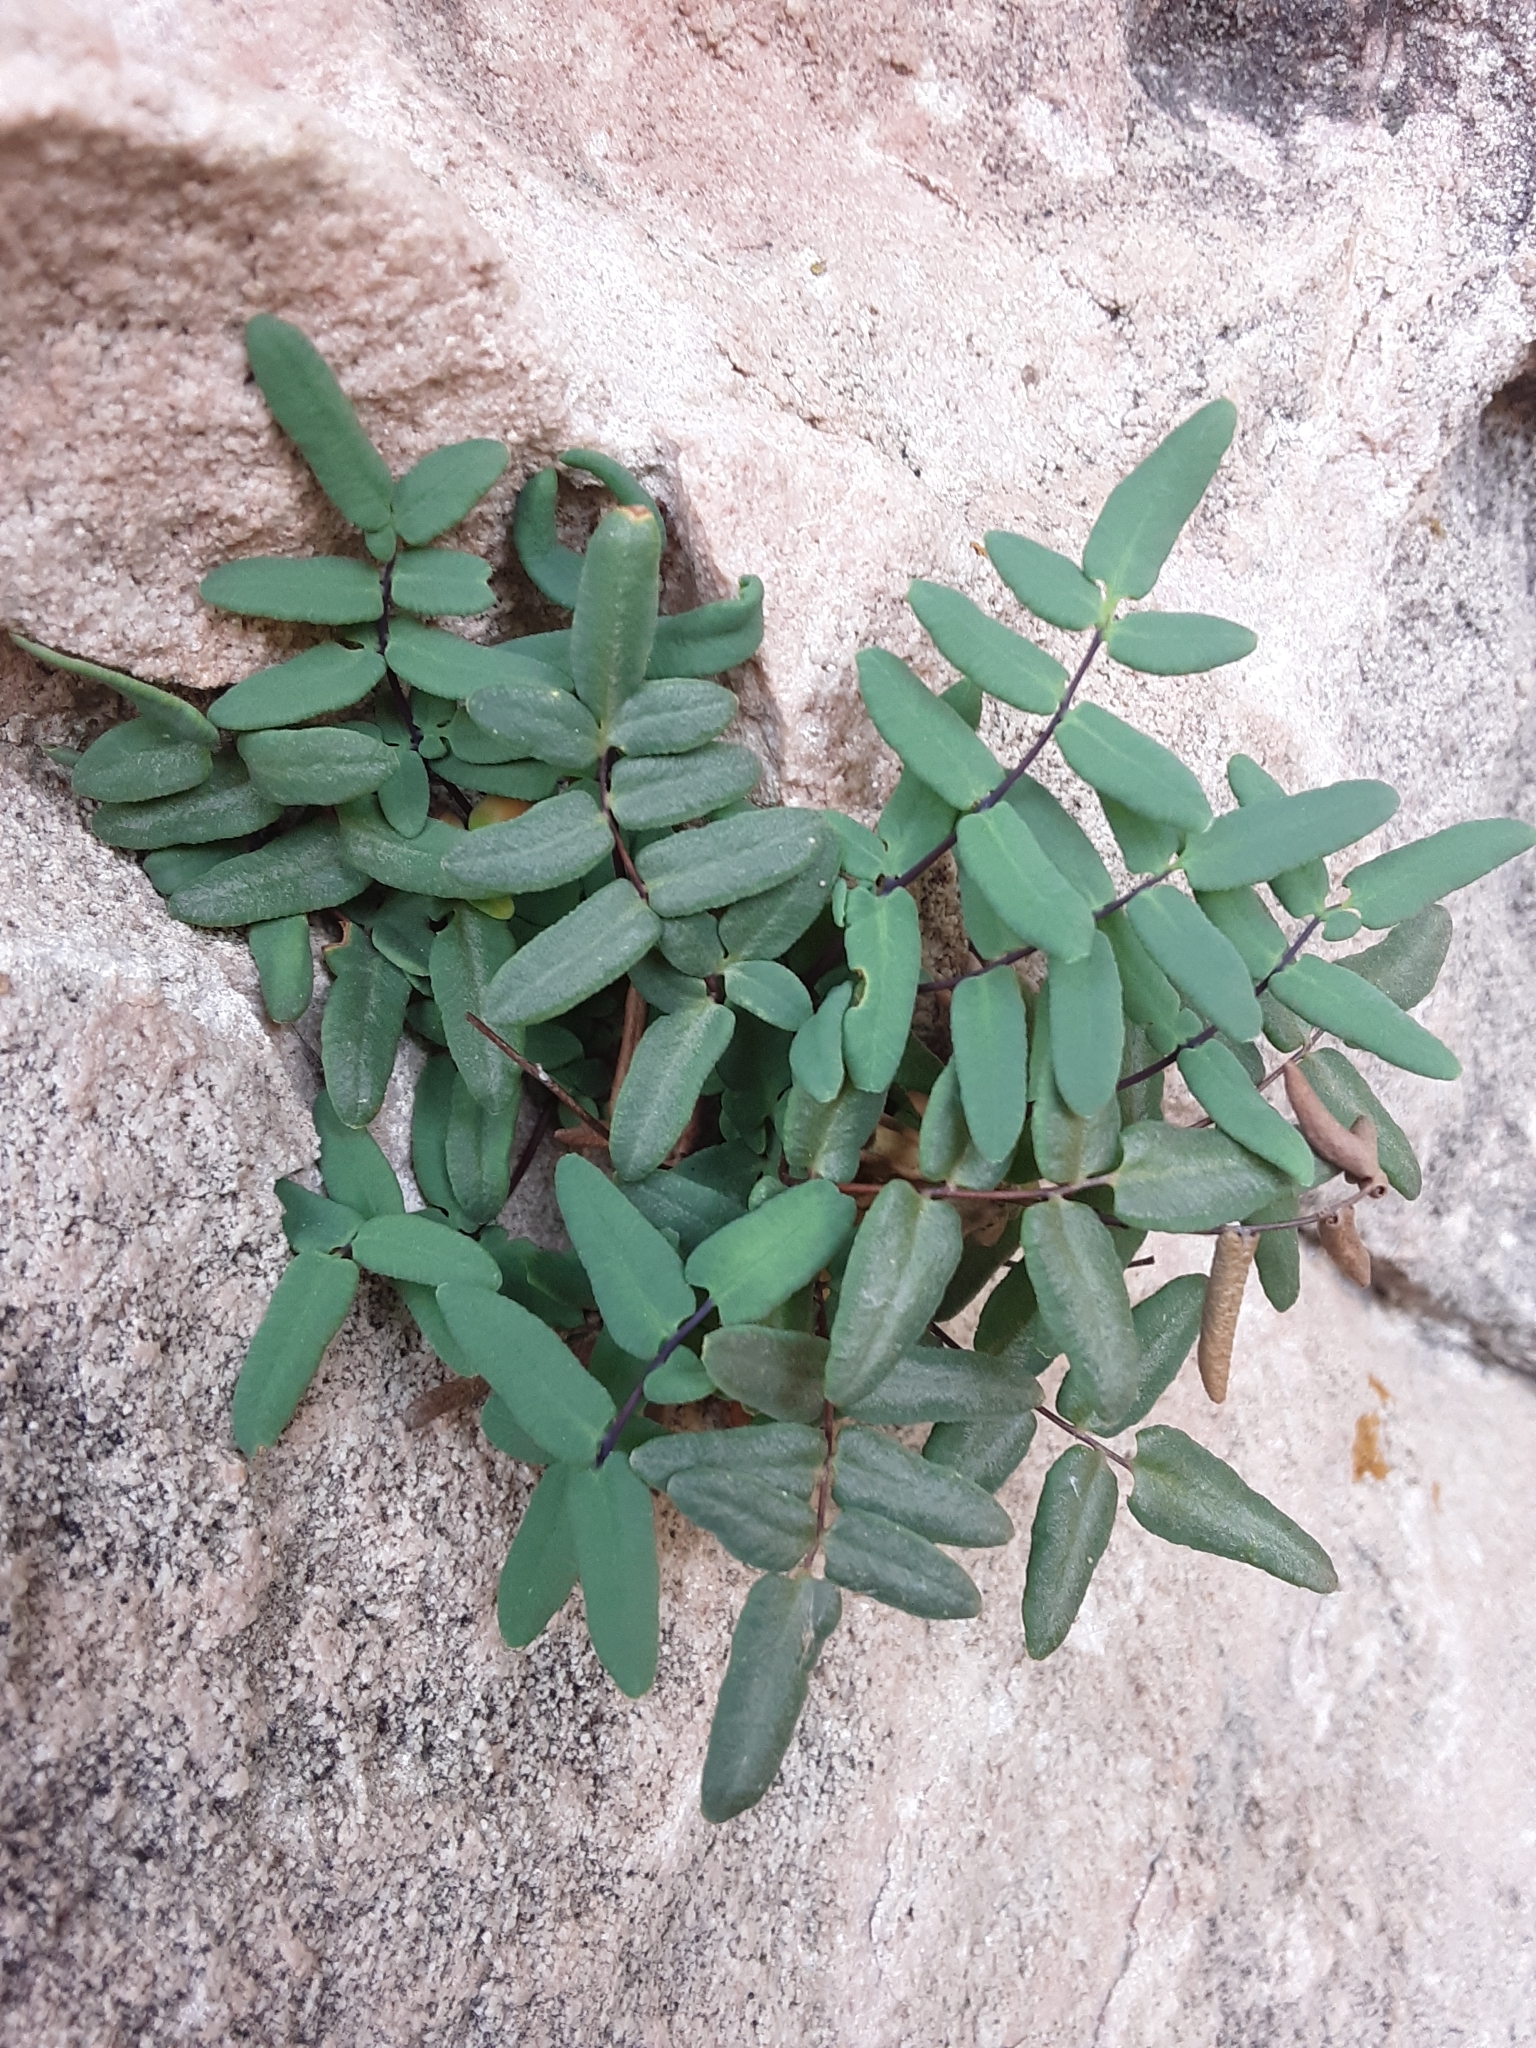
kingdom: Plantae
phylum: Tracheophyta
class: Polypodiopsida
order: Polypodiales
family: Pteridaceae
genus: Pellaea
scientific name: Pellaea glabella
